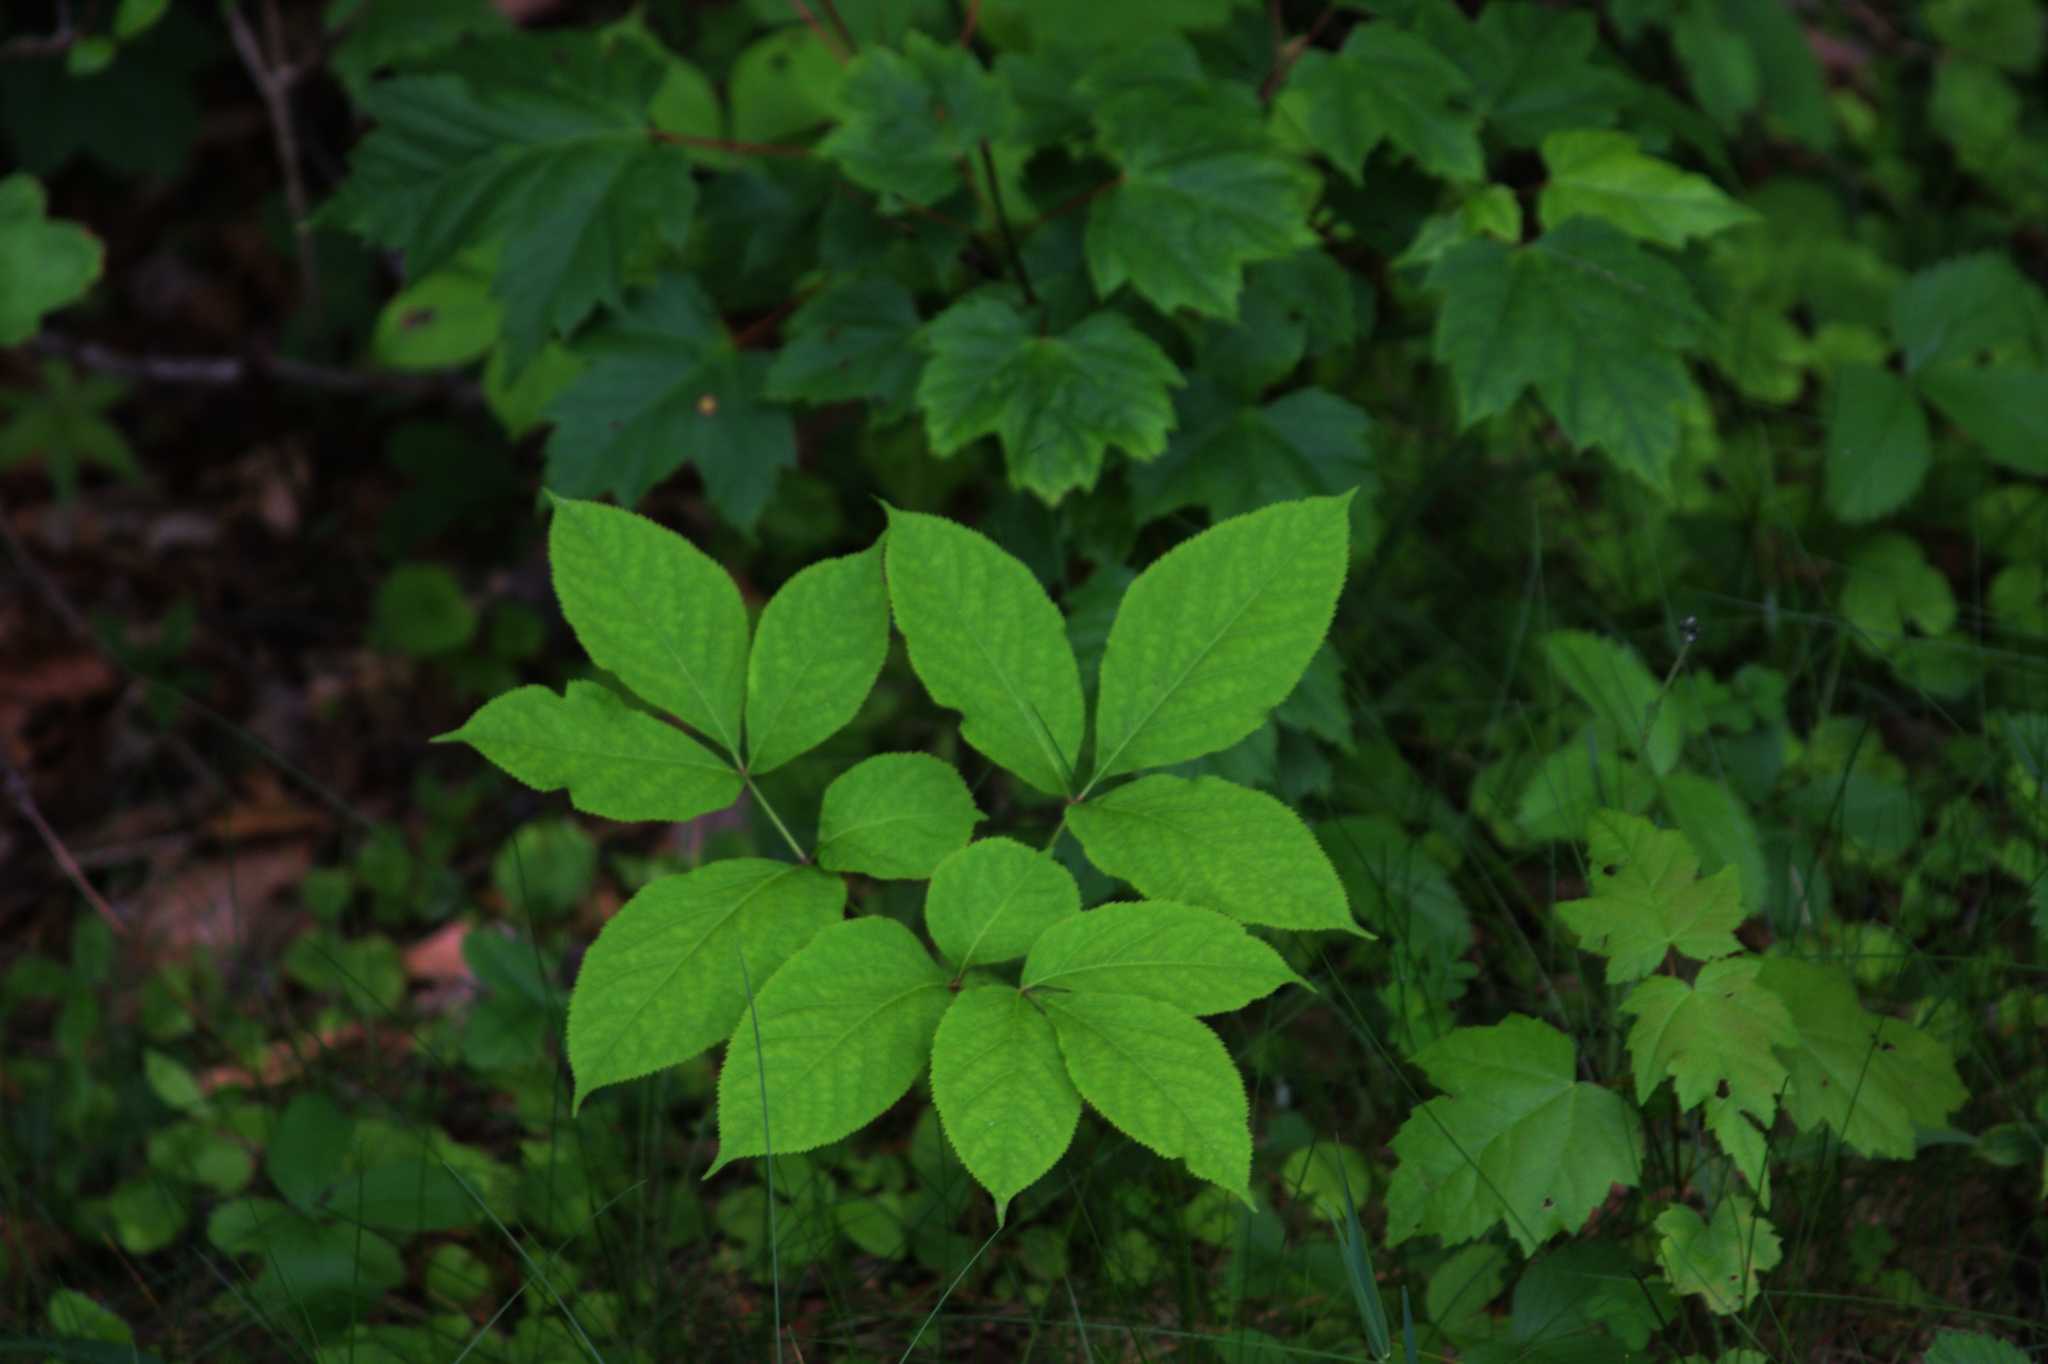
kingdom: Plantae
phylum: Tracheophyta
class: Magnoliopsida
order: Apiales
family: Araliaceae
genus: Aralia
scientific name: Aralia nudicaulis
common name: Wild sarsaparilla
